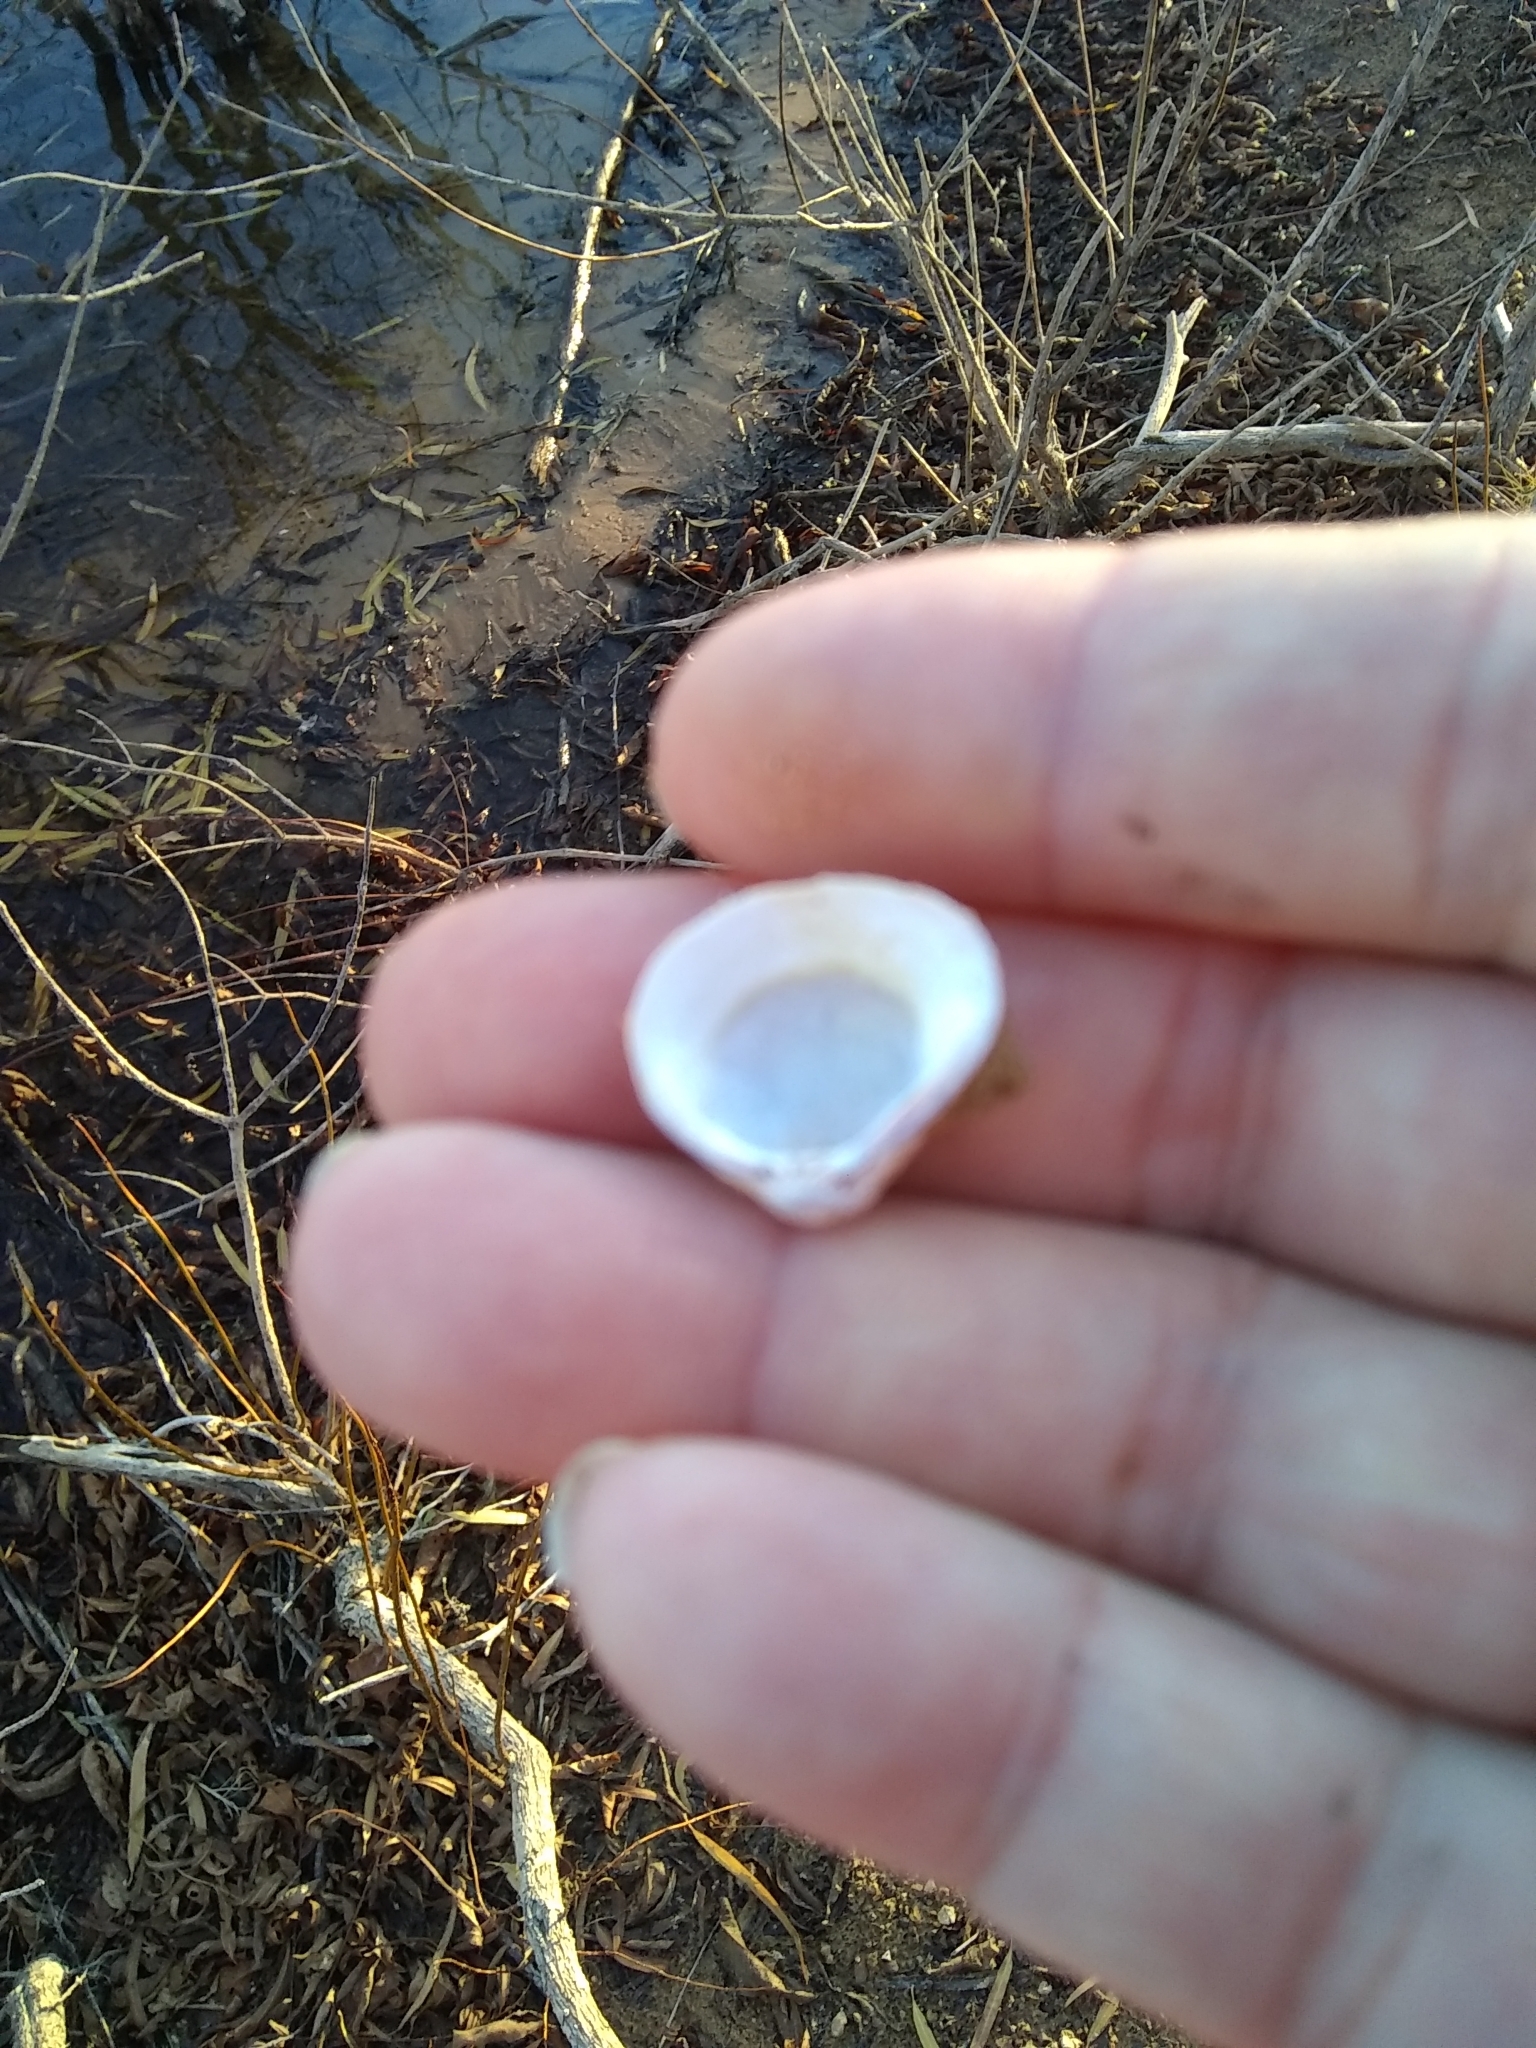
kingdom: Animalia
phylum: Mollusca
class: Bivalvia
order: Venerida
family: Cyrenidae
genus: Corbicula
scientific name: Corbicula fluminea
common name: Asian clam
